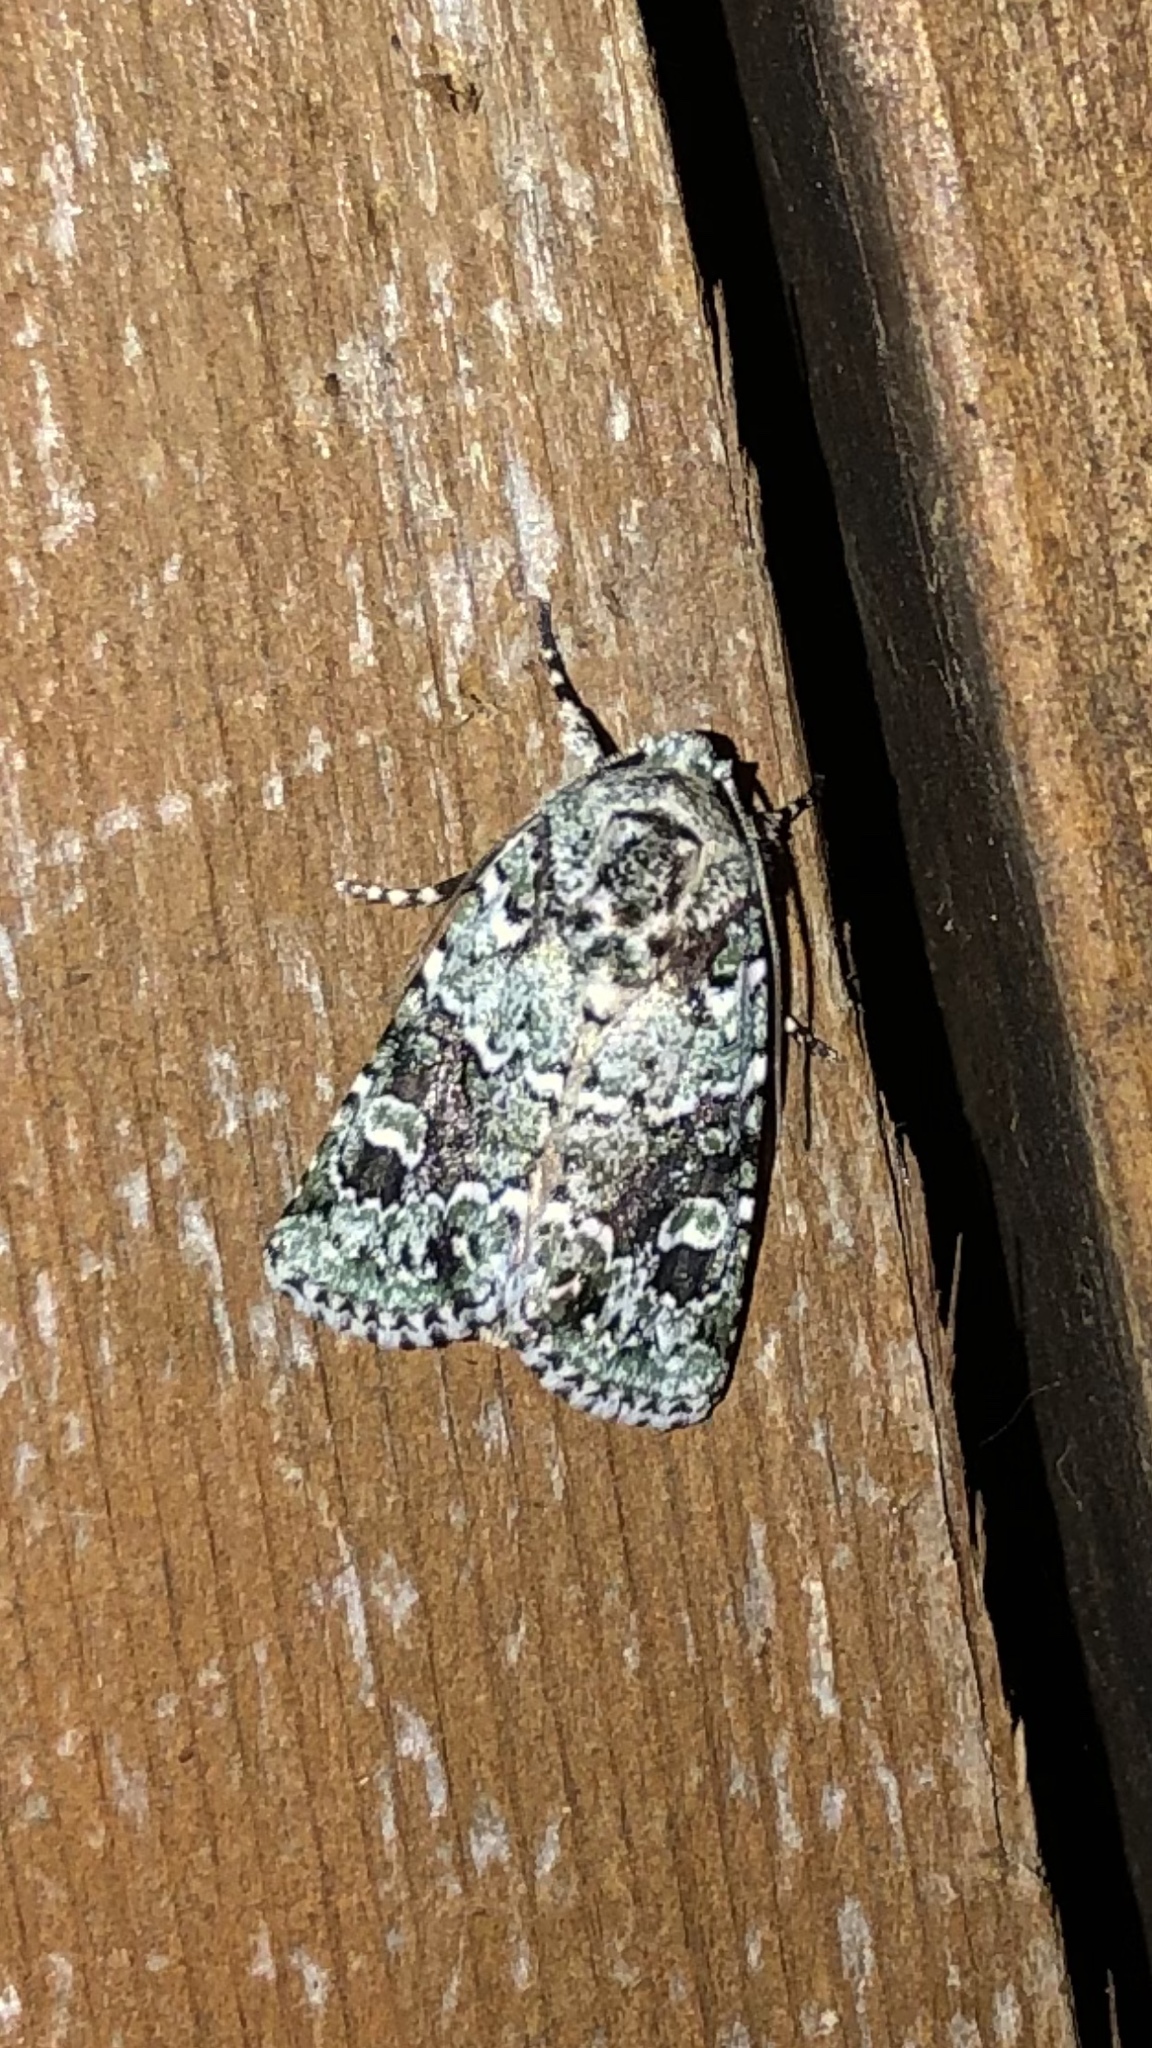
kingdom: Animalia
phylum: Arthropoda
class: Insecta
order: Lepidoptera
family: Noctuidae
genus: Lacinipolia
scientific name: Lacinipolia laudabilis
